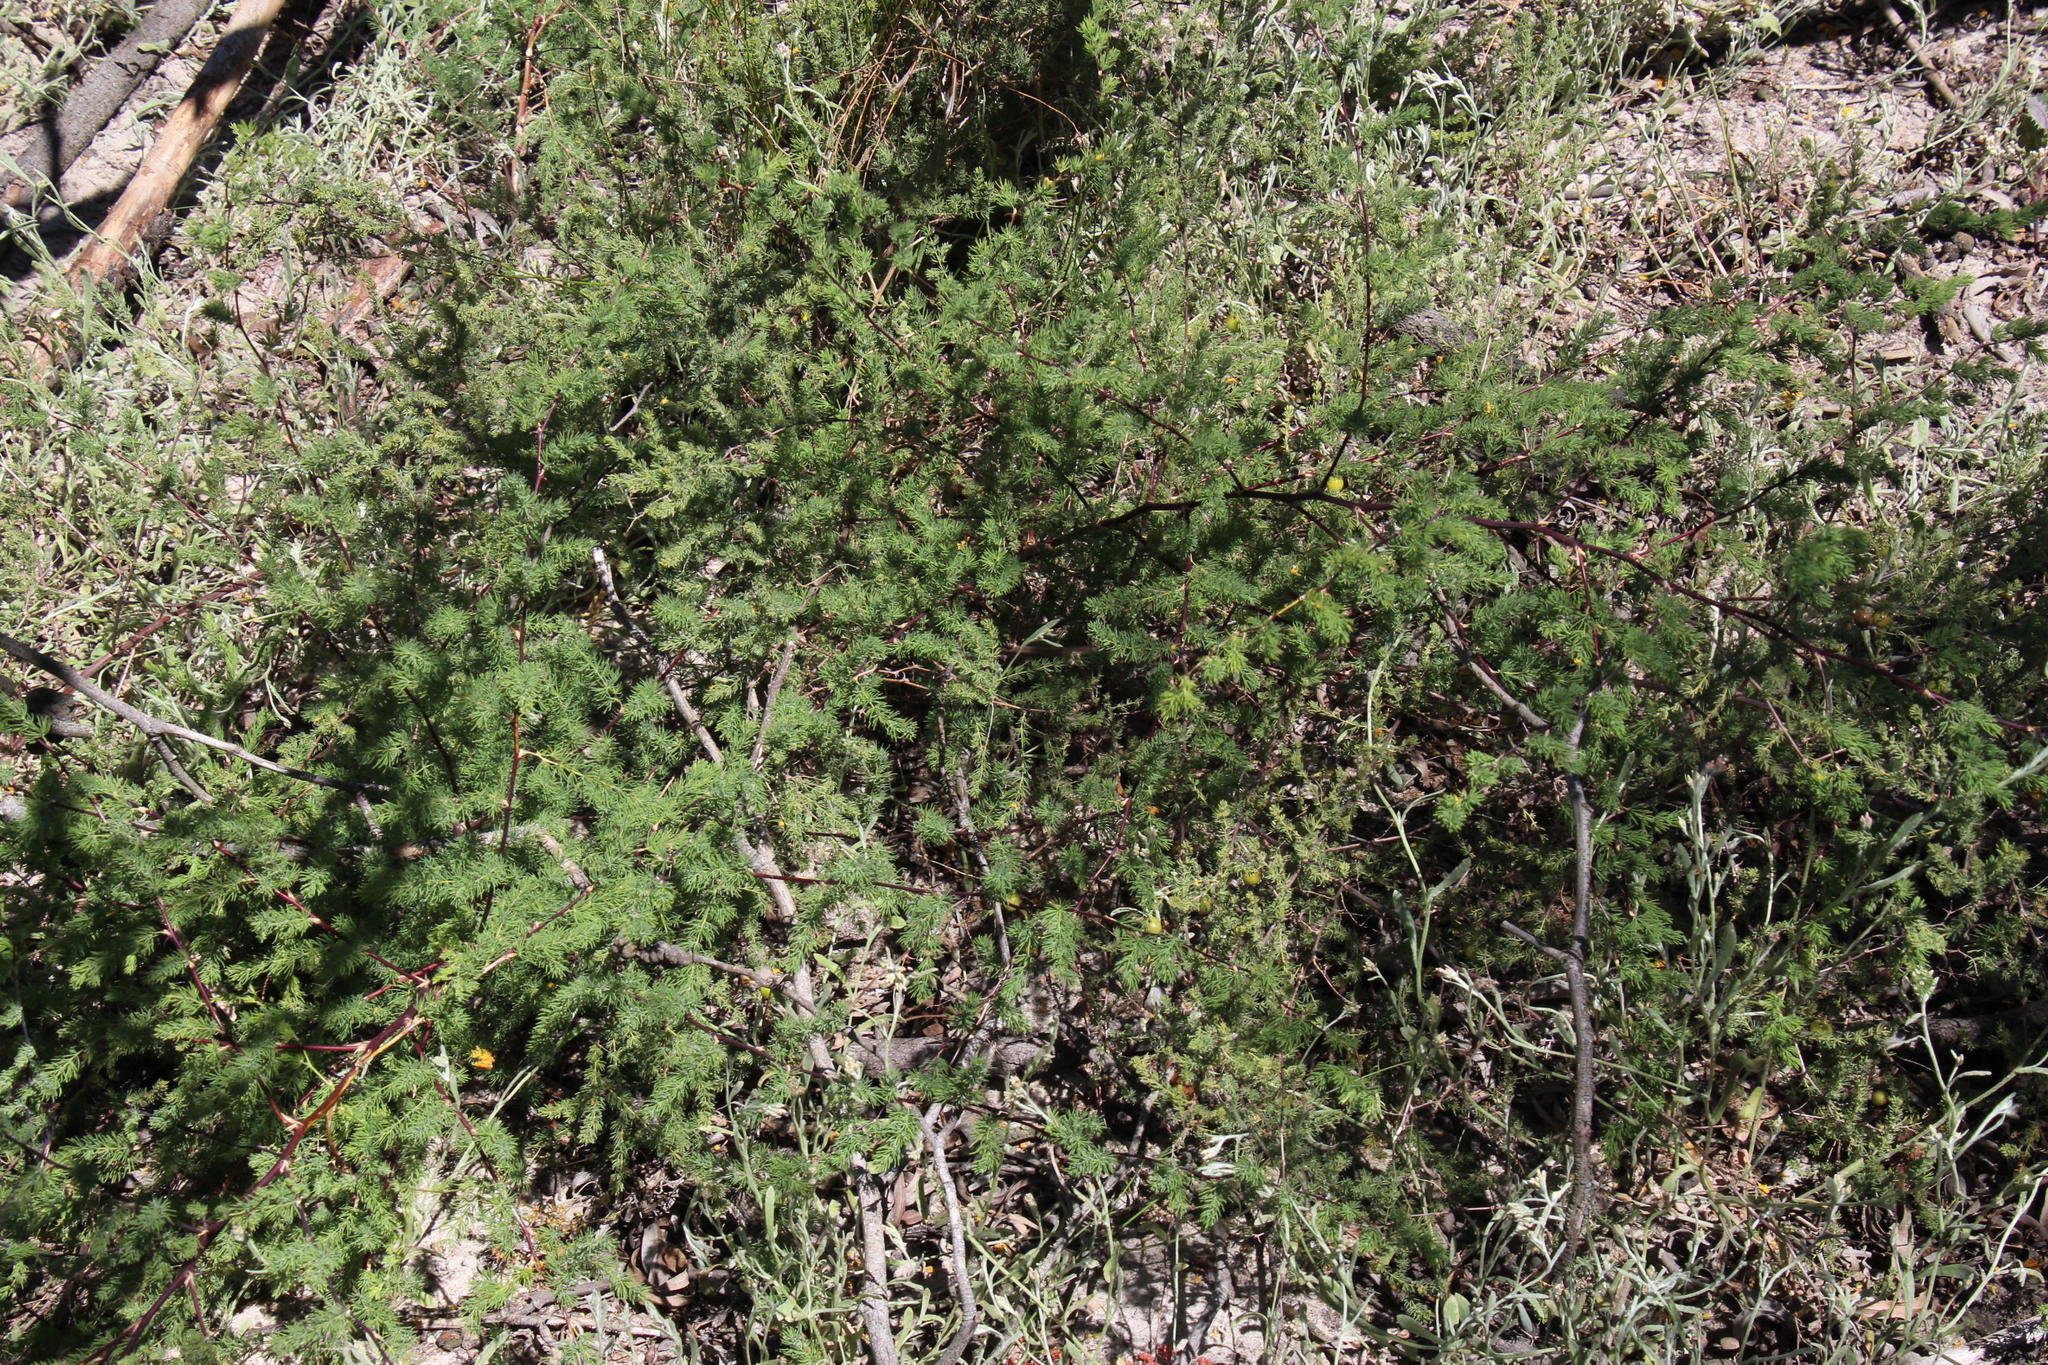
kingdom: Plantae
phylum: Tracheophyta
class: Liliopsida
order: Asparagales
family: Asparagaceae
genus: Asparagus
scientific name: Asparagus rubicundus
